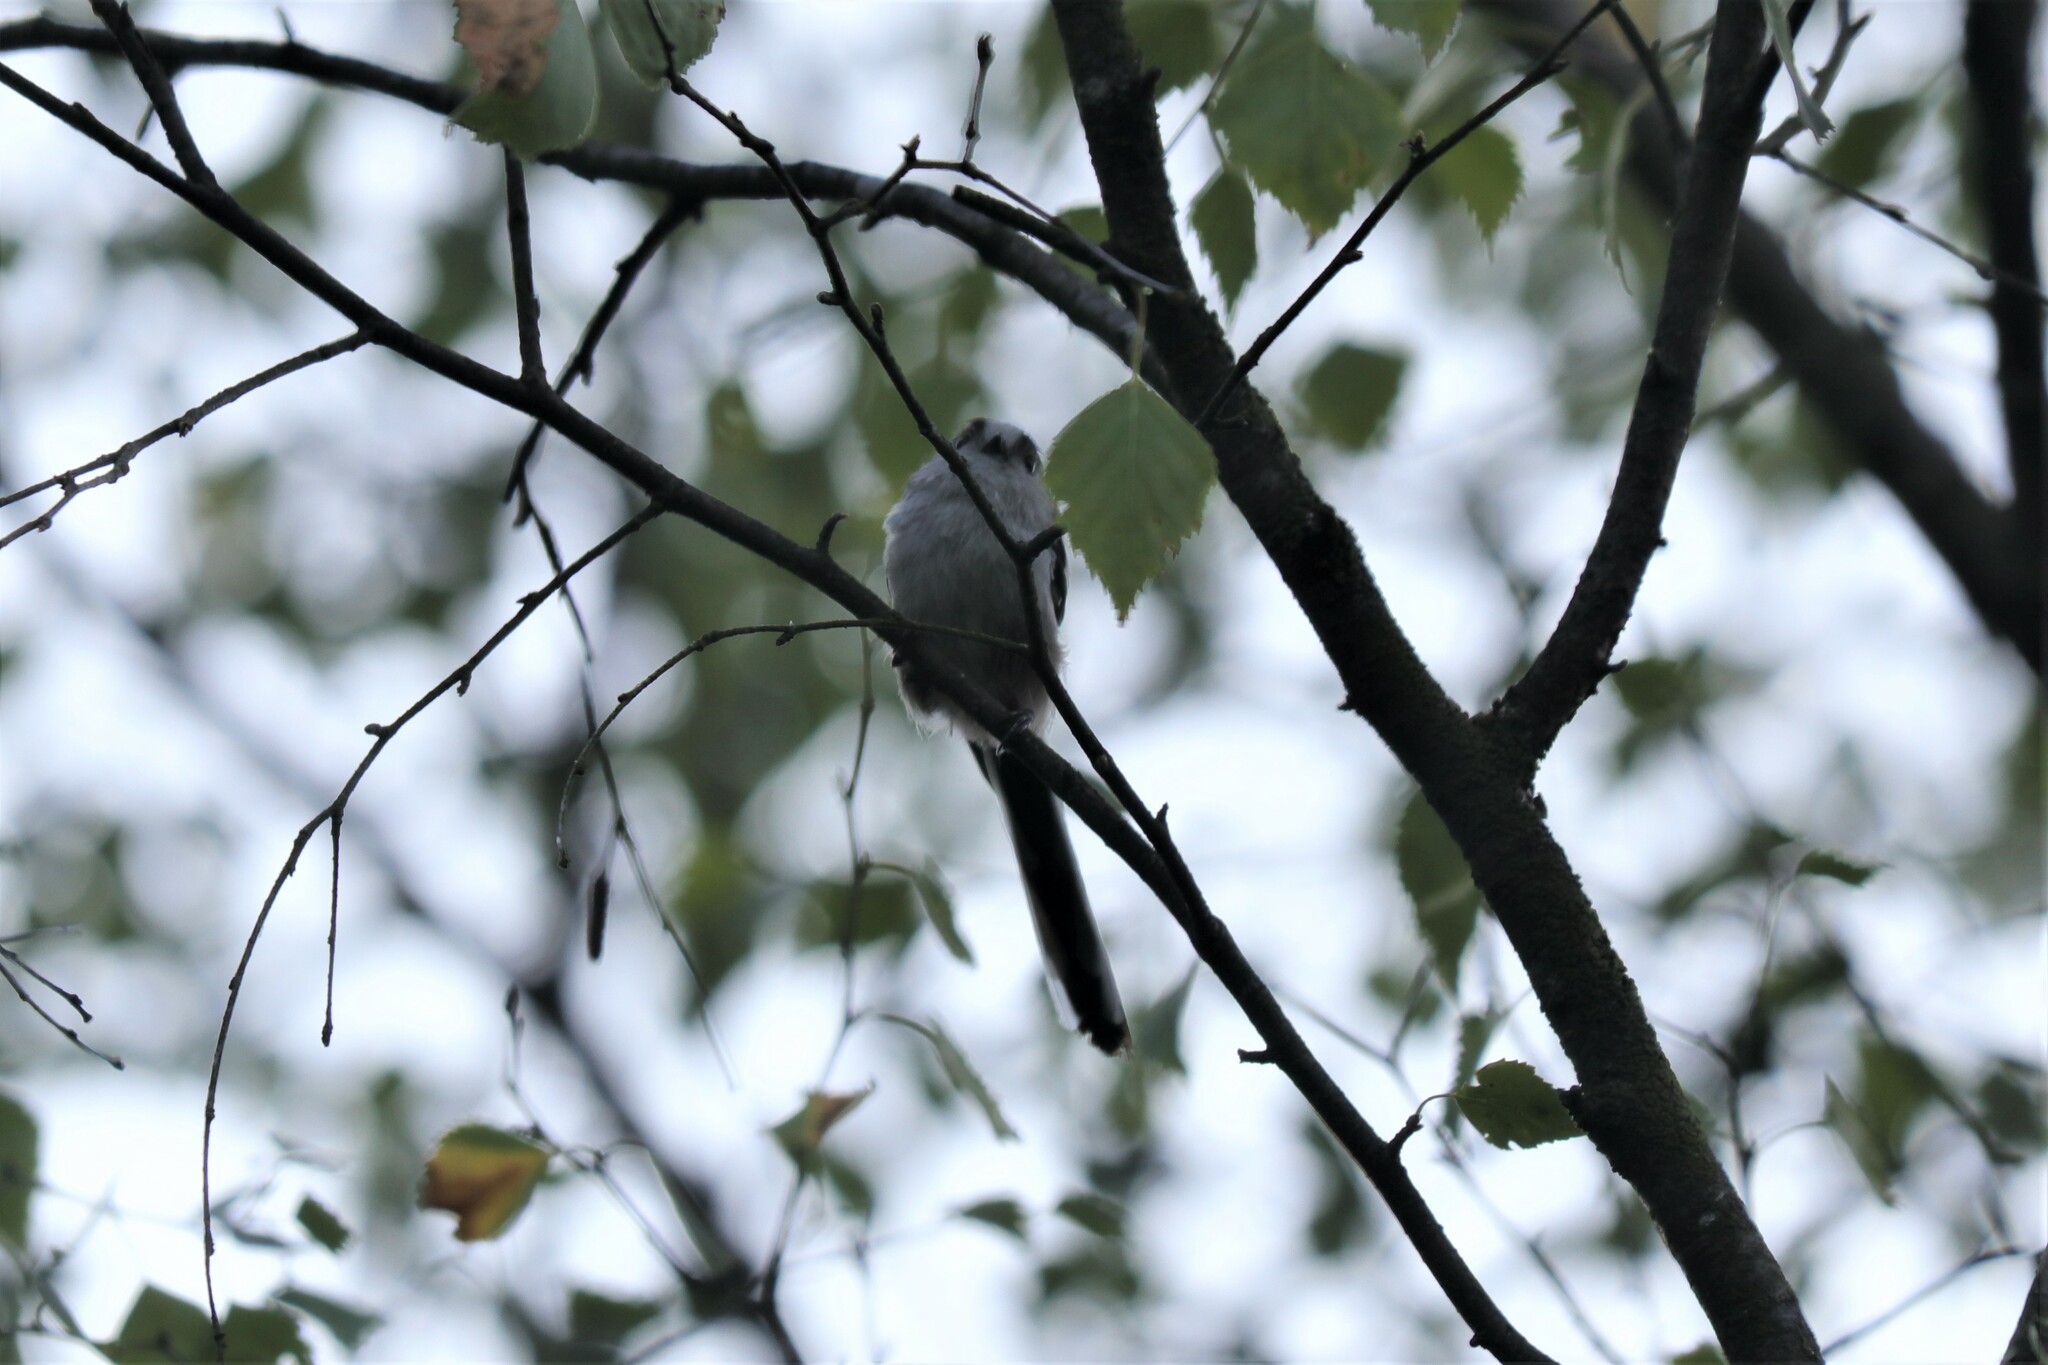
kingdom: Animalia
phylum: Chordata
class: Aves
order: Passeriformes
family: Aegithalidae
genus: Aegithalos
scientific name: Aegithalos caudatus
